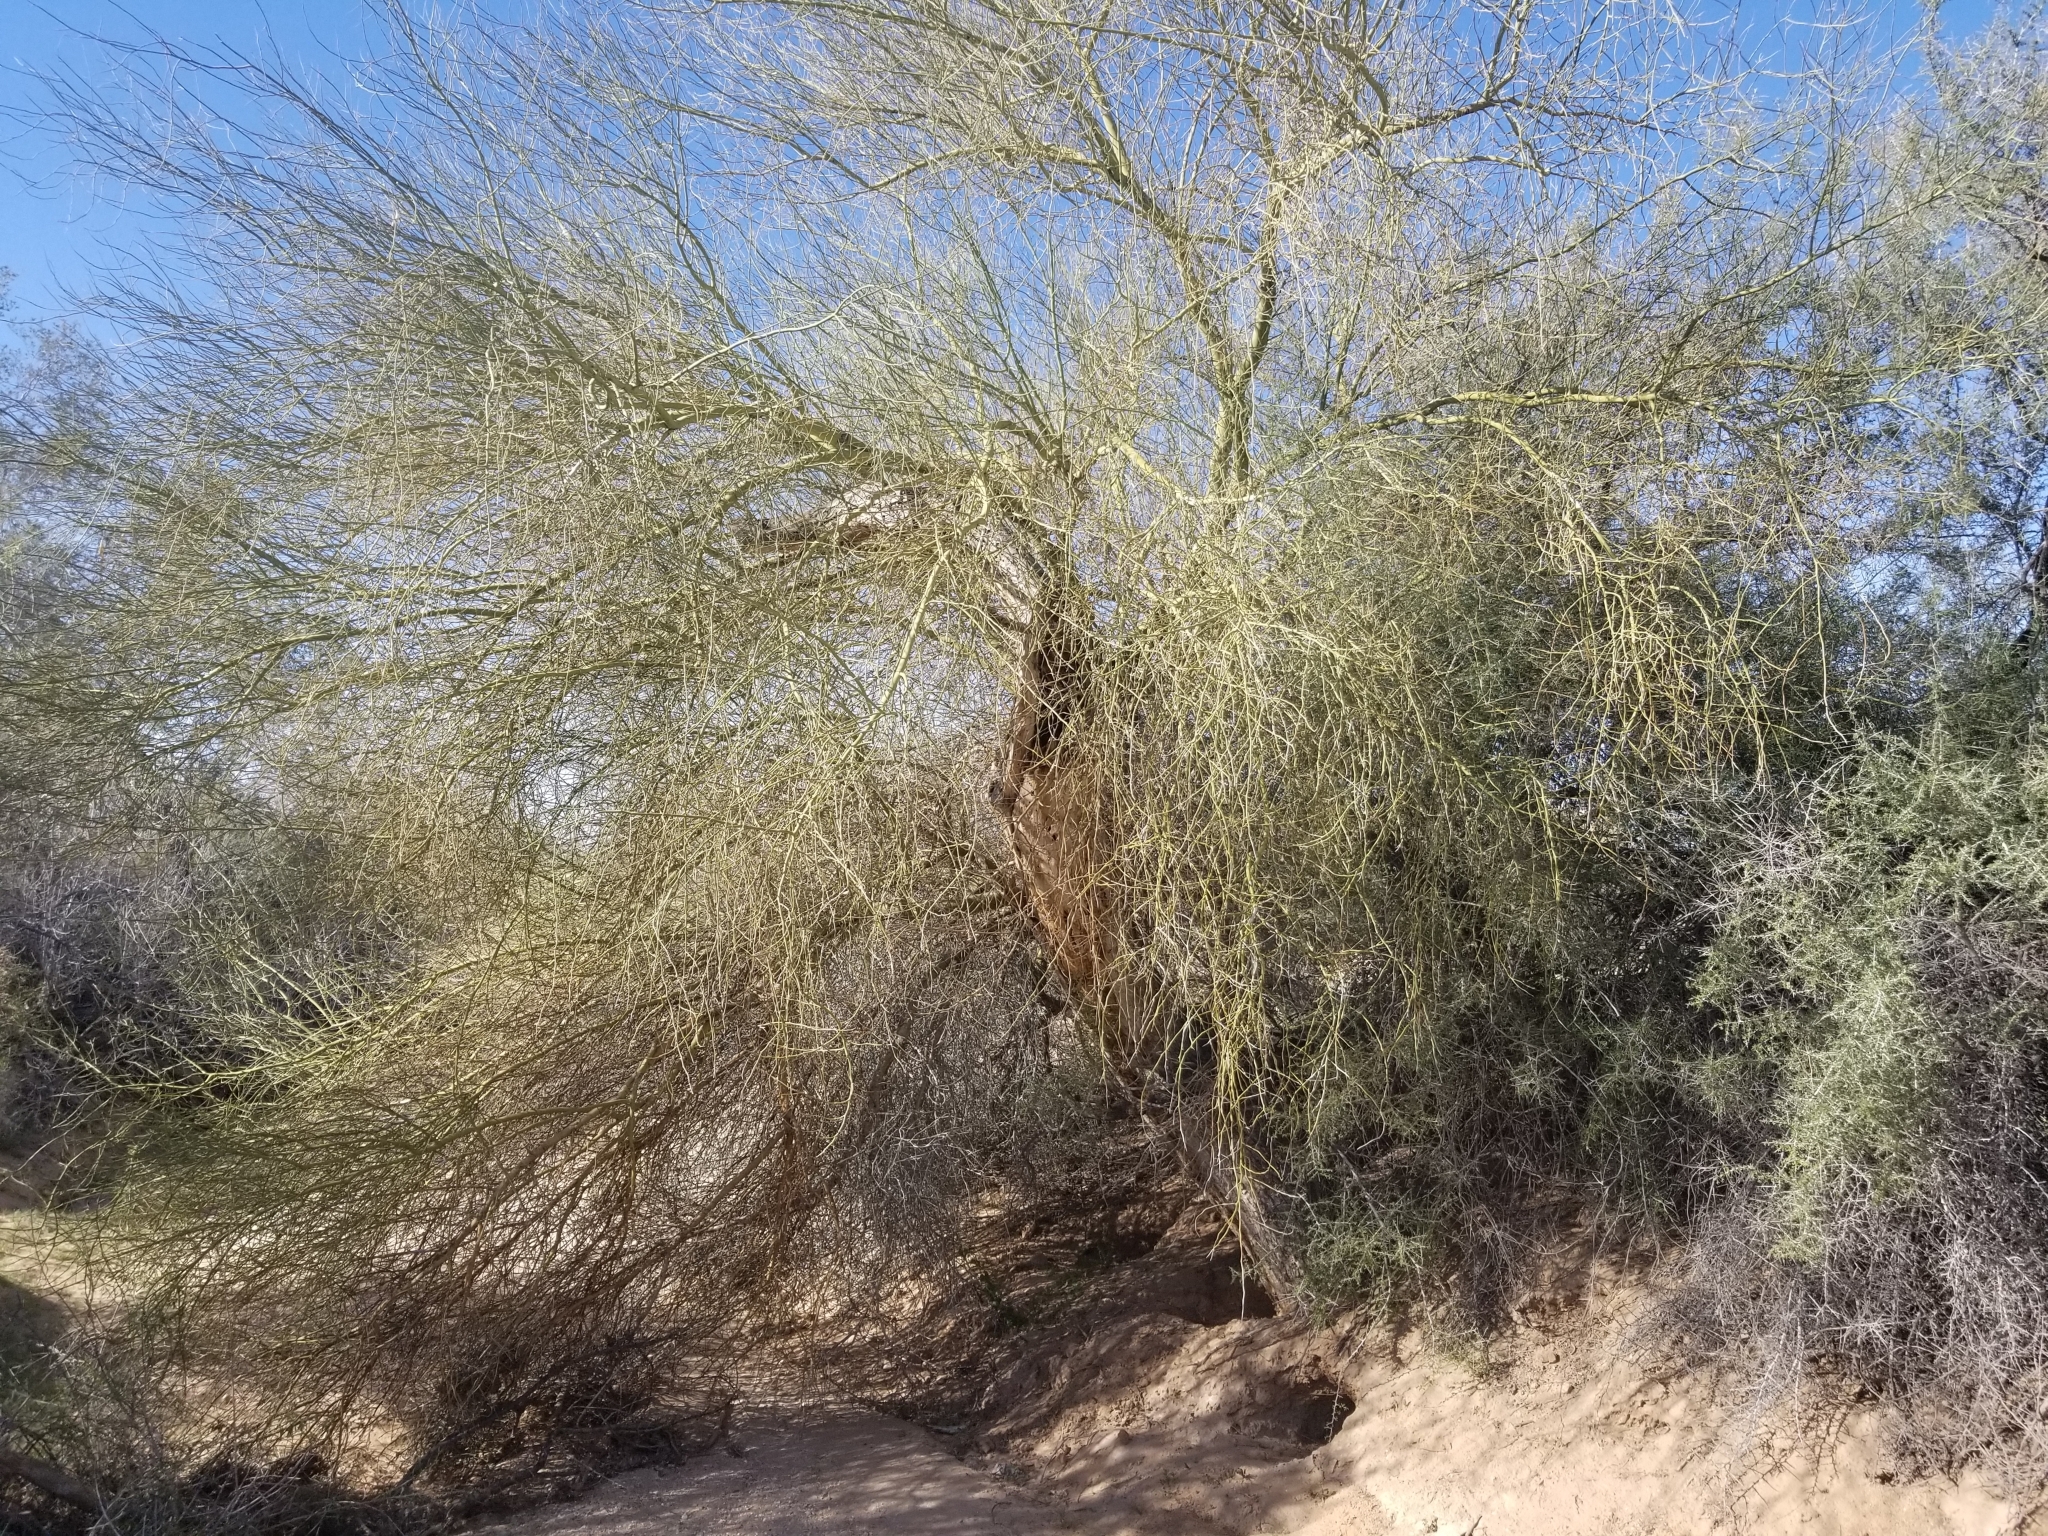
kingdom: Plantae
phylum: Tracheophyta
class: Magnoliopsida
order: Fabales
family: Fabaceae
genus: Parkinsonia
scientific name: Parkinsonia florida
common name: Blue paloverde
